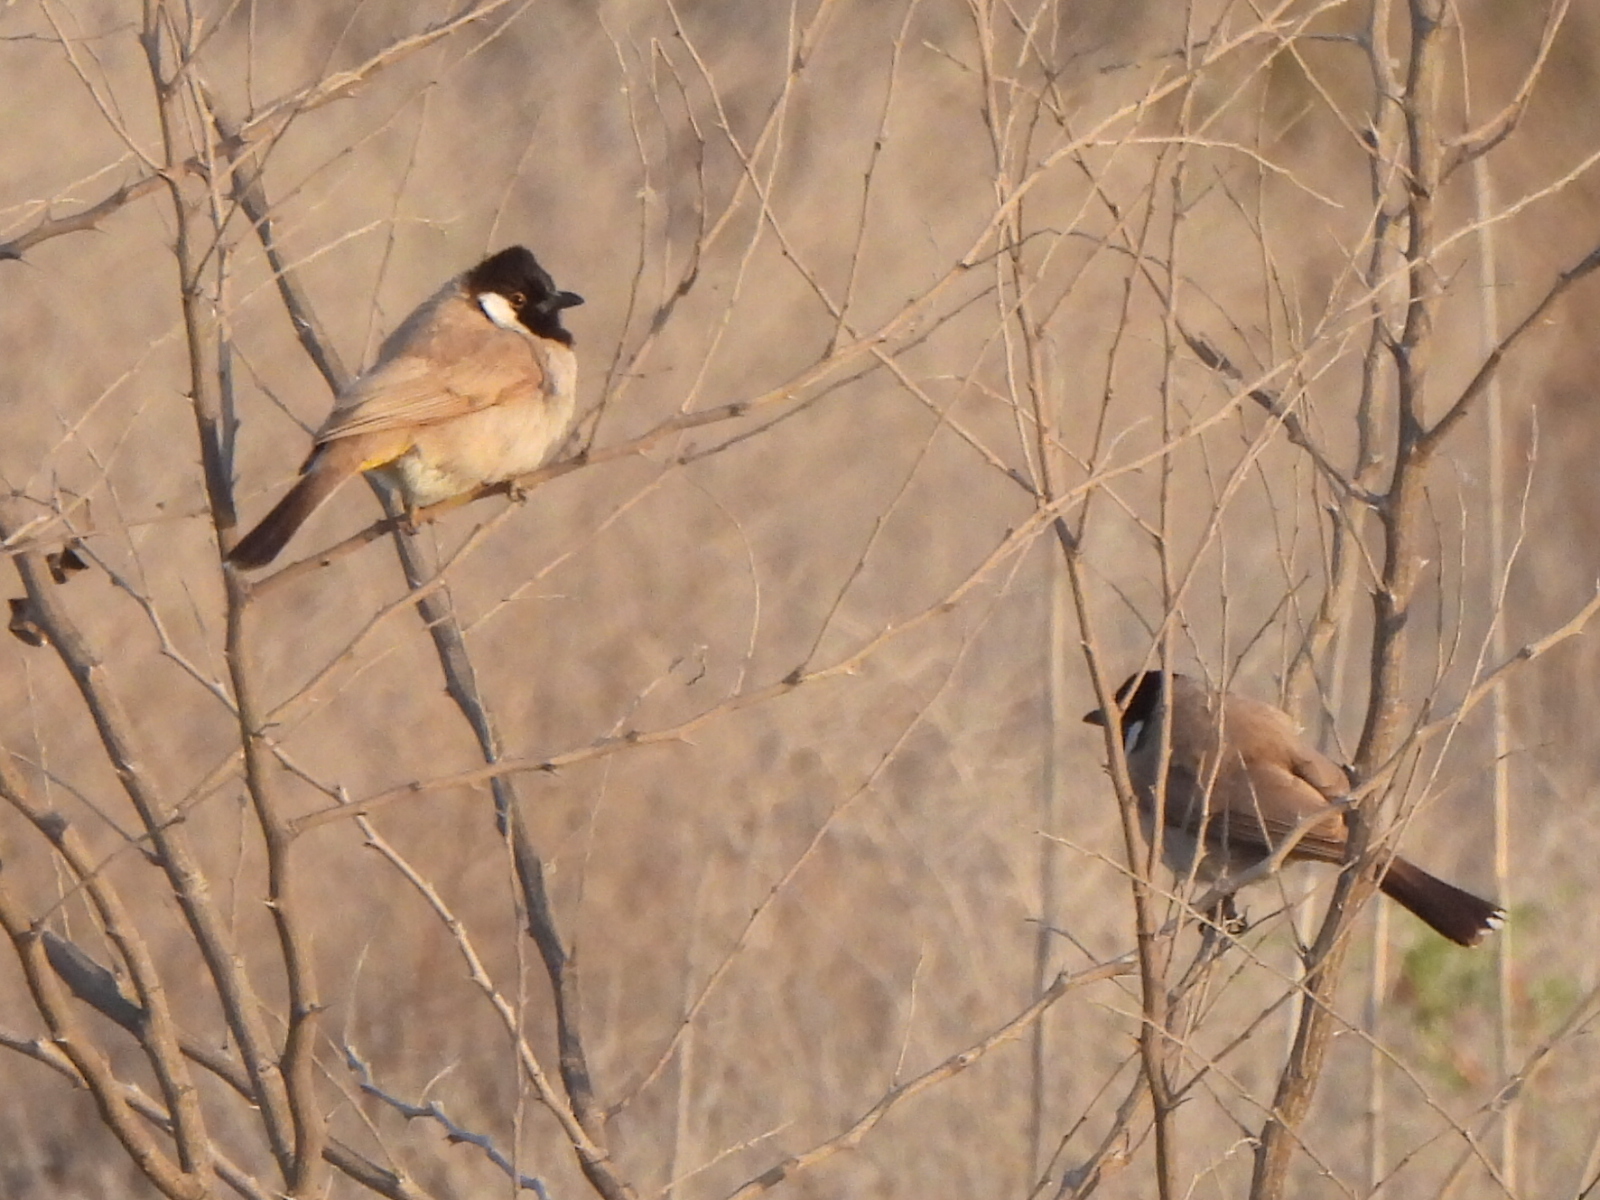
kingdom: Animalia
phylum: Chordata
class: Aves
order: Passeriformes
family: Pycnonotidae
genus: Pycnonotus
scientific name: Pycnonotus leucotis
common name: White-eared bulbul
